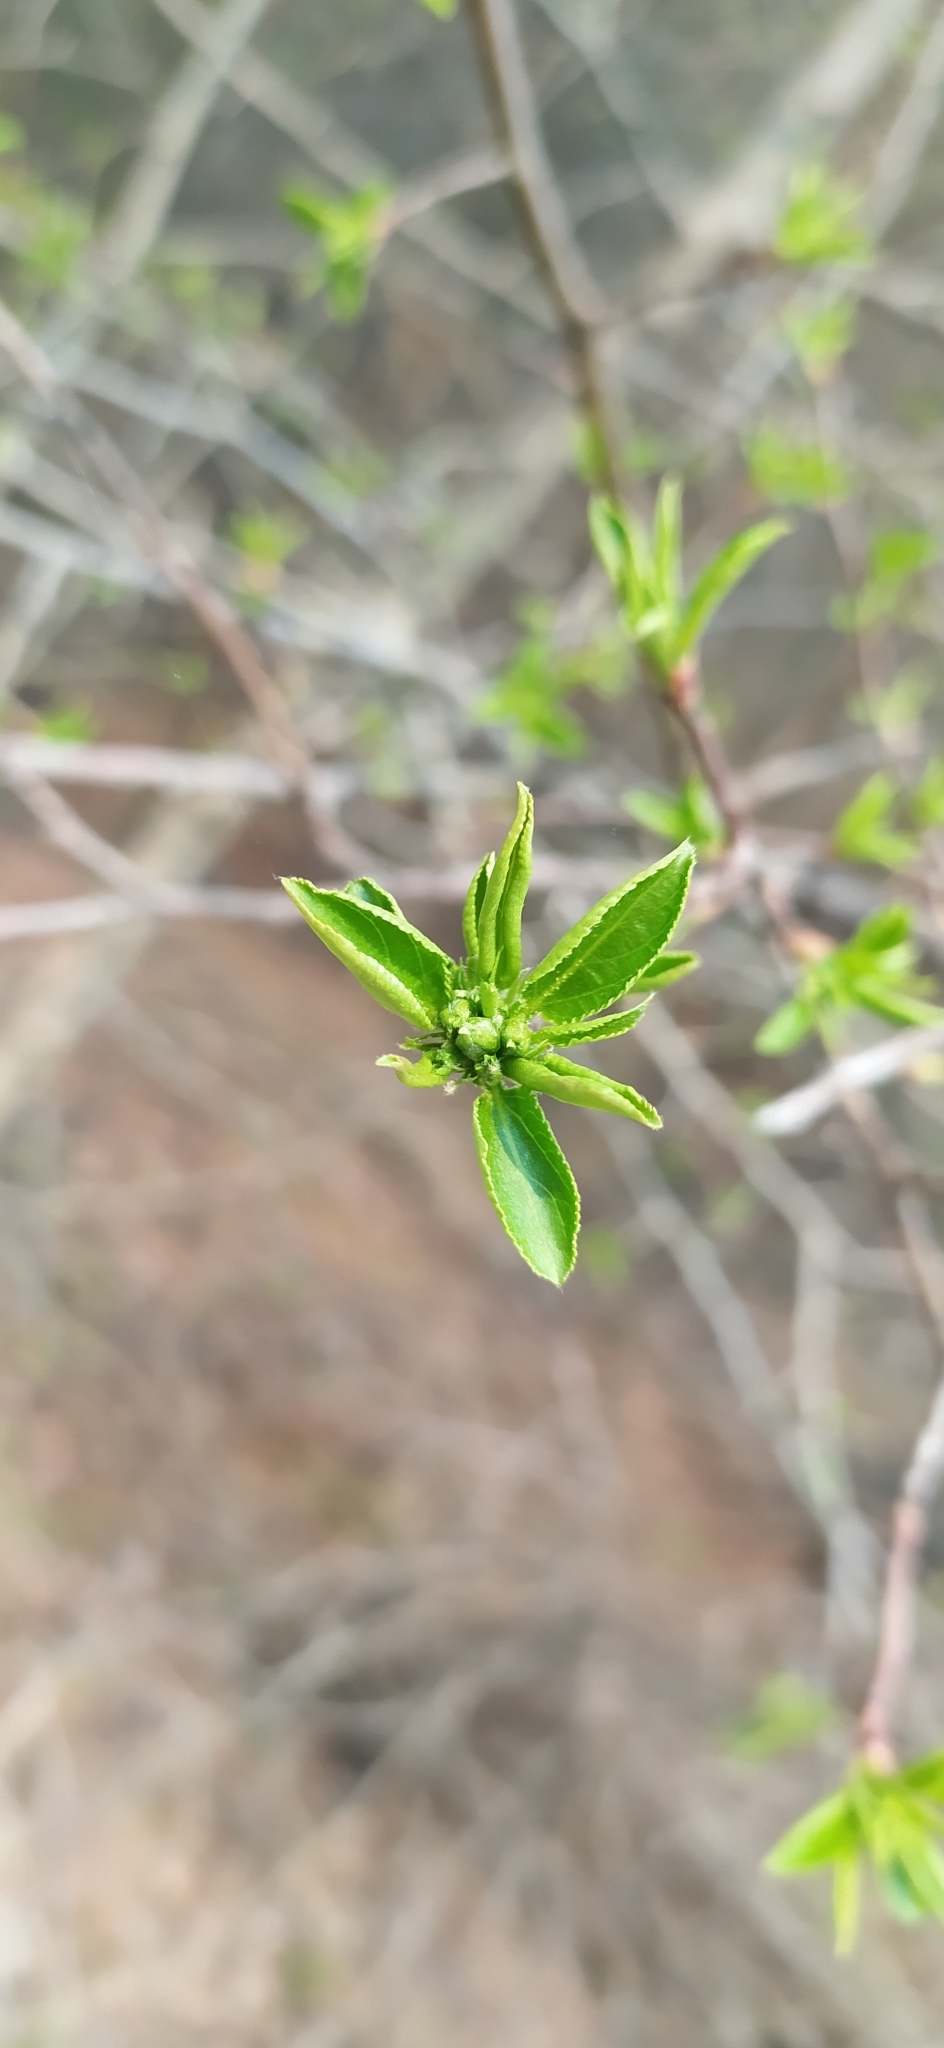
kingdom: Plantae
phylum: Tracheophyta
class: Magnoliopsida
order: Rosales
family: Rosaceae
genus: Malus
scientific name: Malus baccata
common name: Siberian crab
